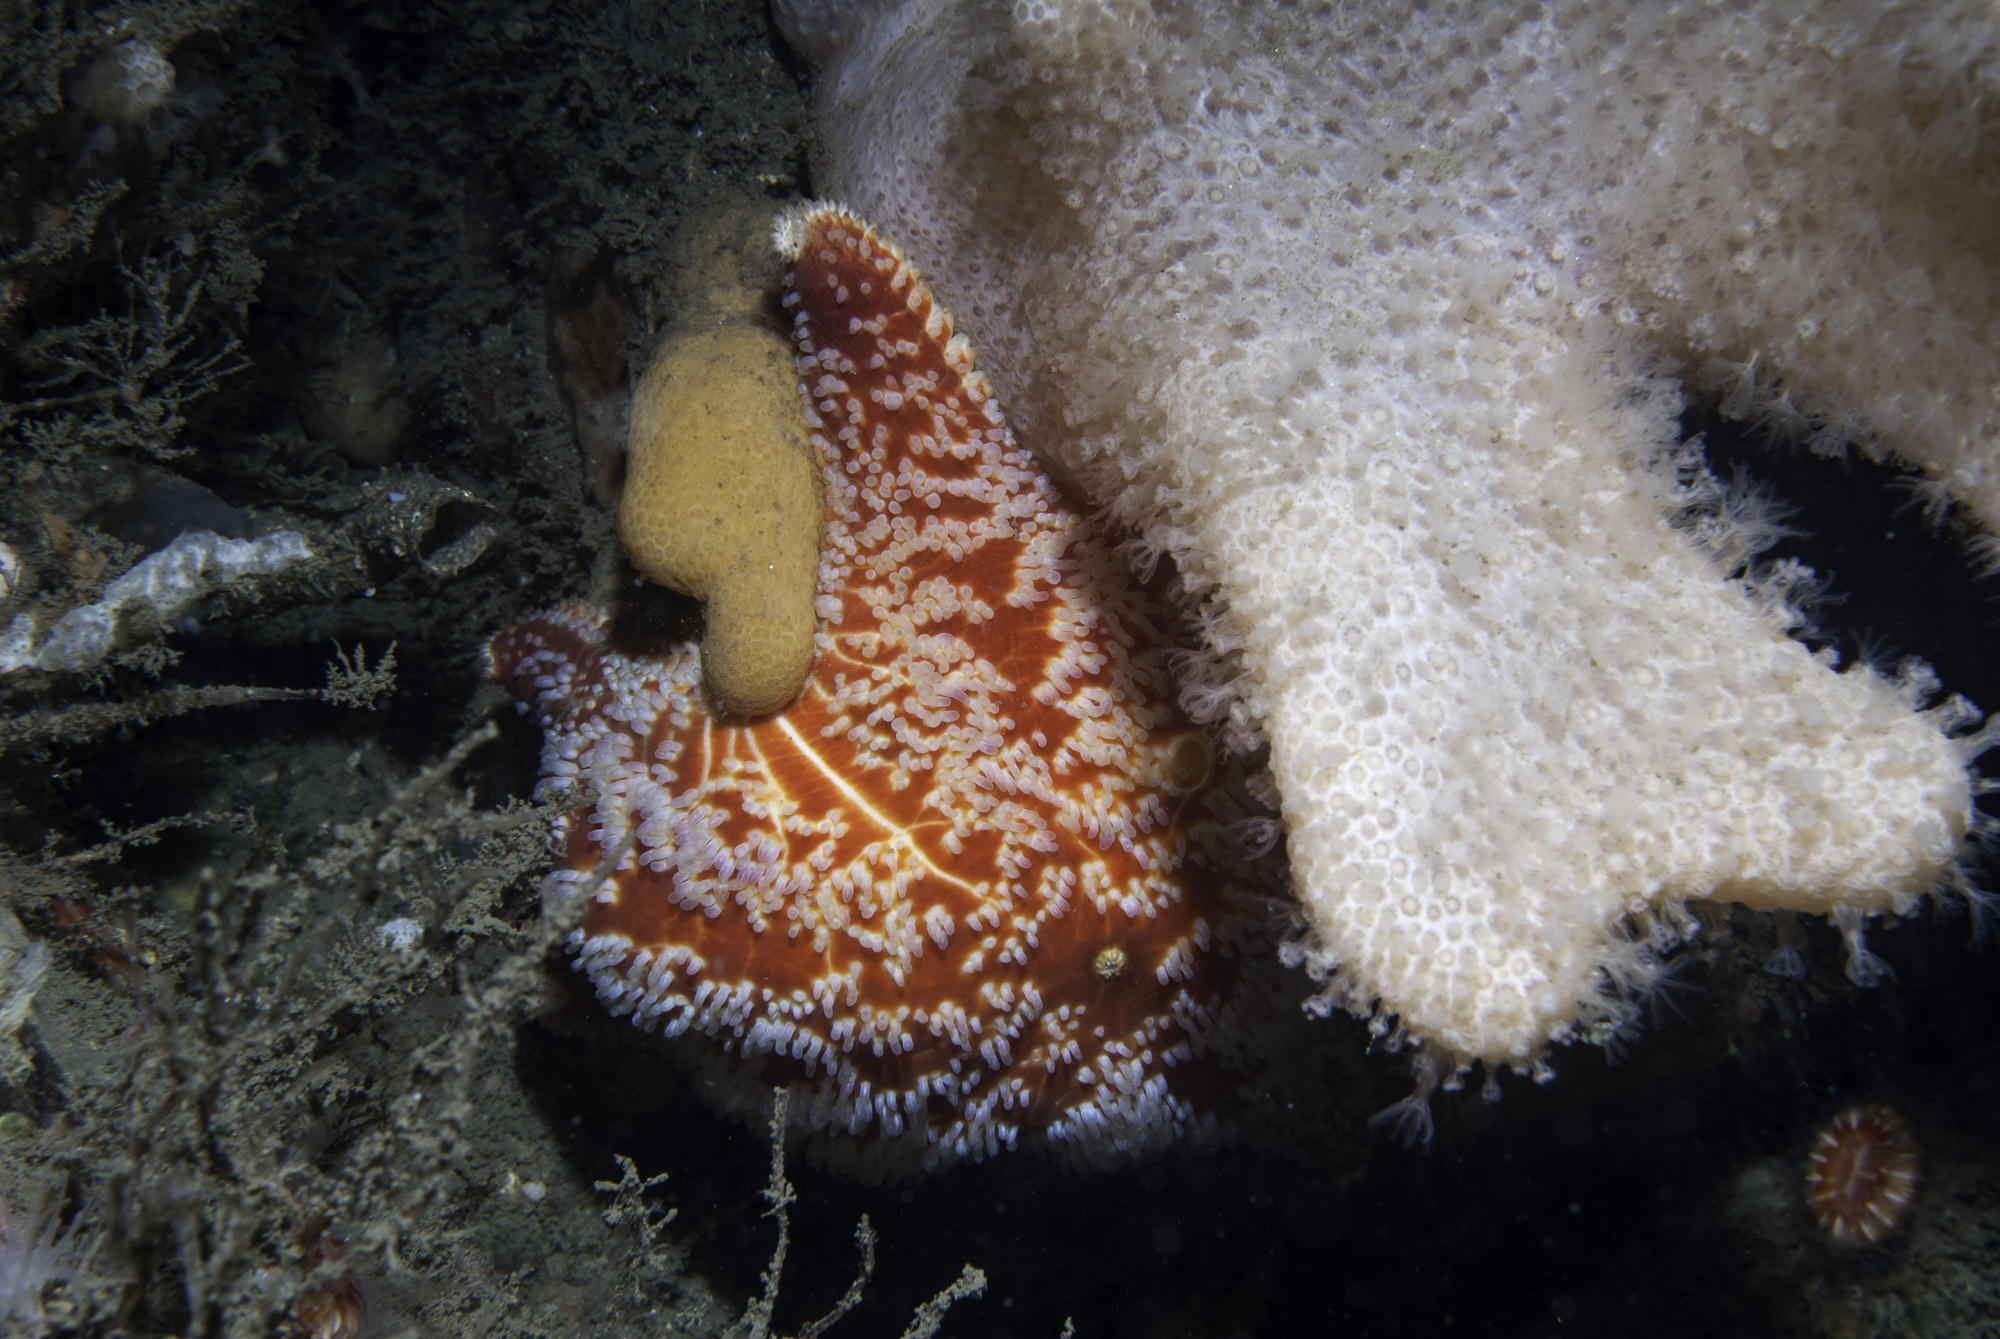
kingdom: Animalia
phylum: Echinodermata
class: Asteroidea
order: Valvatida
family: Poraniidae
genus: Porania
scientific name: Porania pulvillus
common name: Red cushion stat
